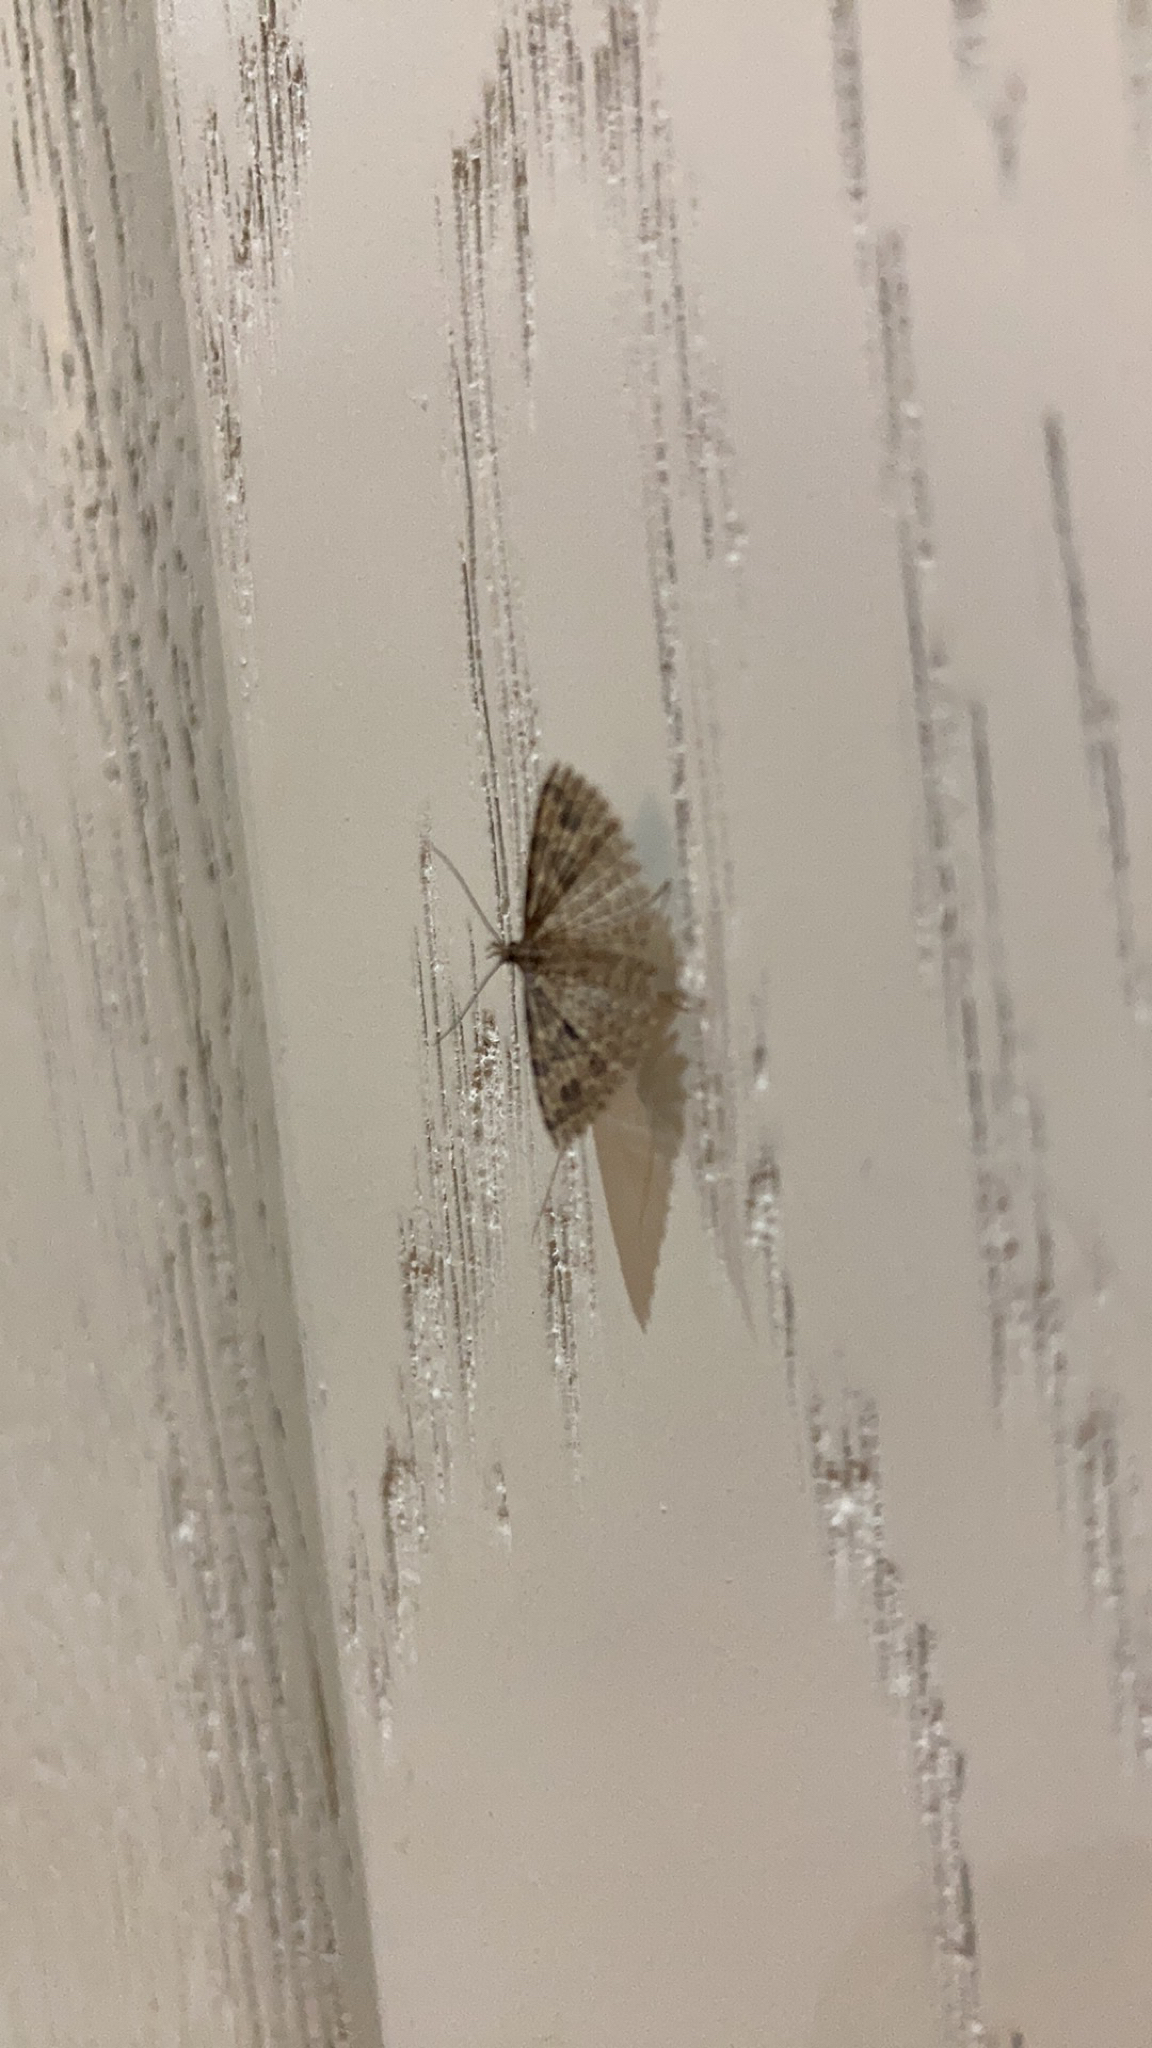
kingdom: Animalia
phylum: Arthropoda
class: Insecta
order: Lepidoptera
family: Alucitidae
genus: Alucita
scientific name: Alucita hexadactyla
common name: Twenty-plume moth
